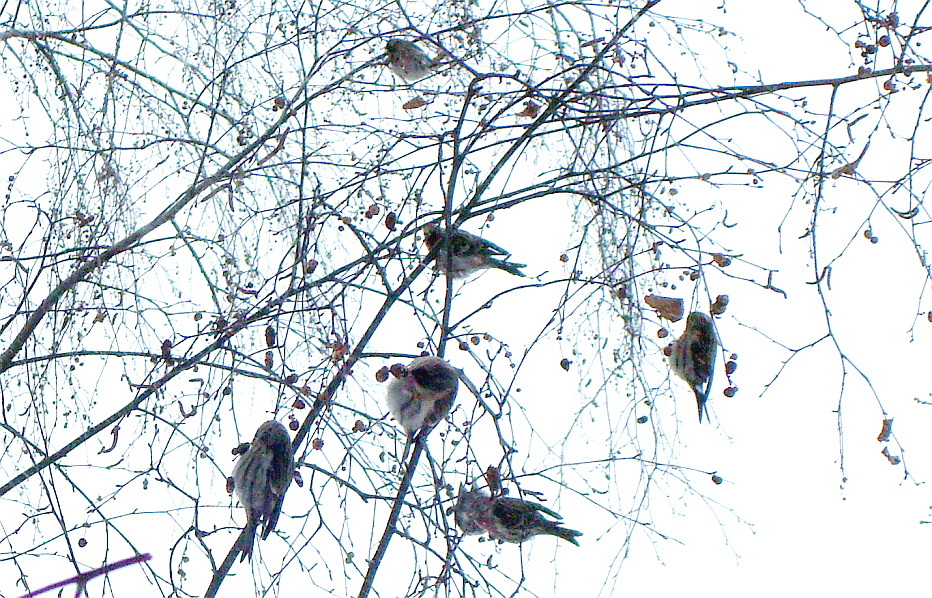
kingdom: Animalia
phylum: Chordata
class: Aves
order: Passeriformes
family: Fringillidae
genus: Acanthis
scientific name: Acanthis flammea
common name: Common redpoll
